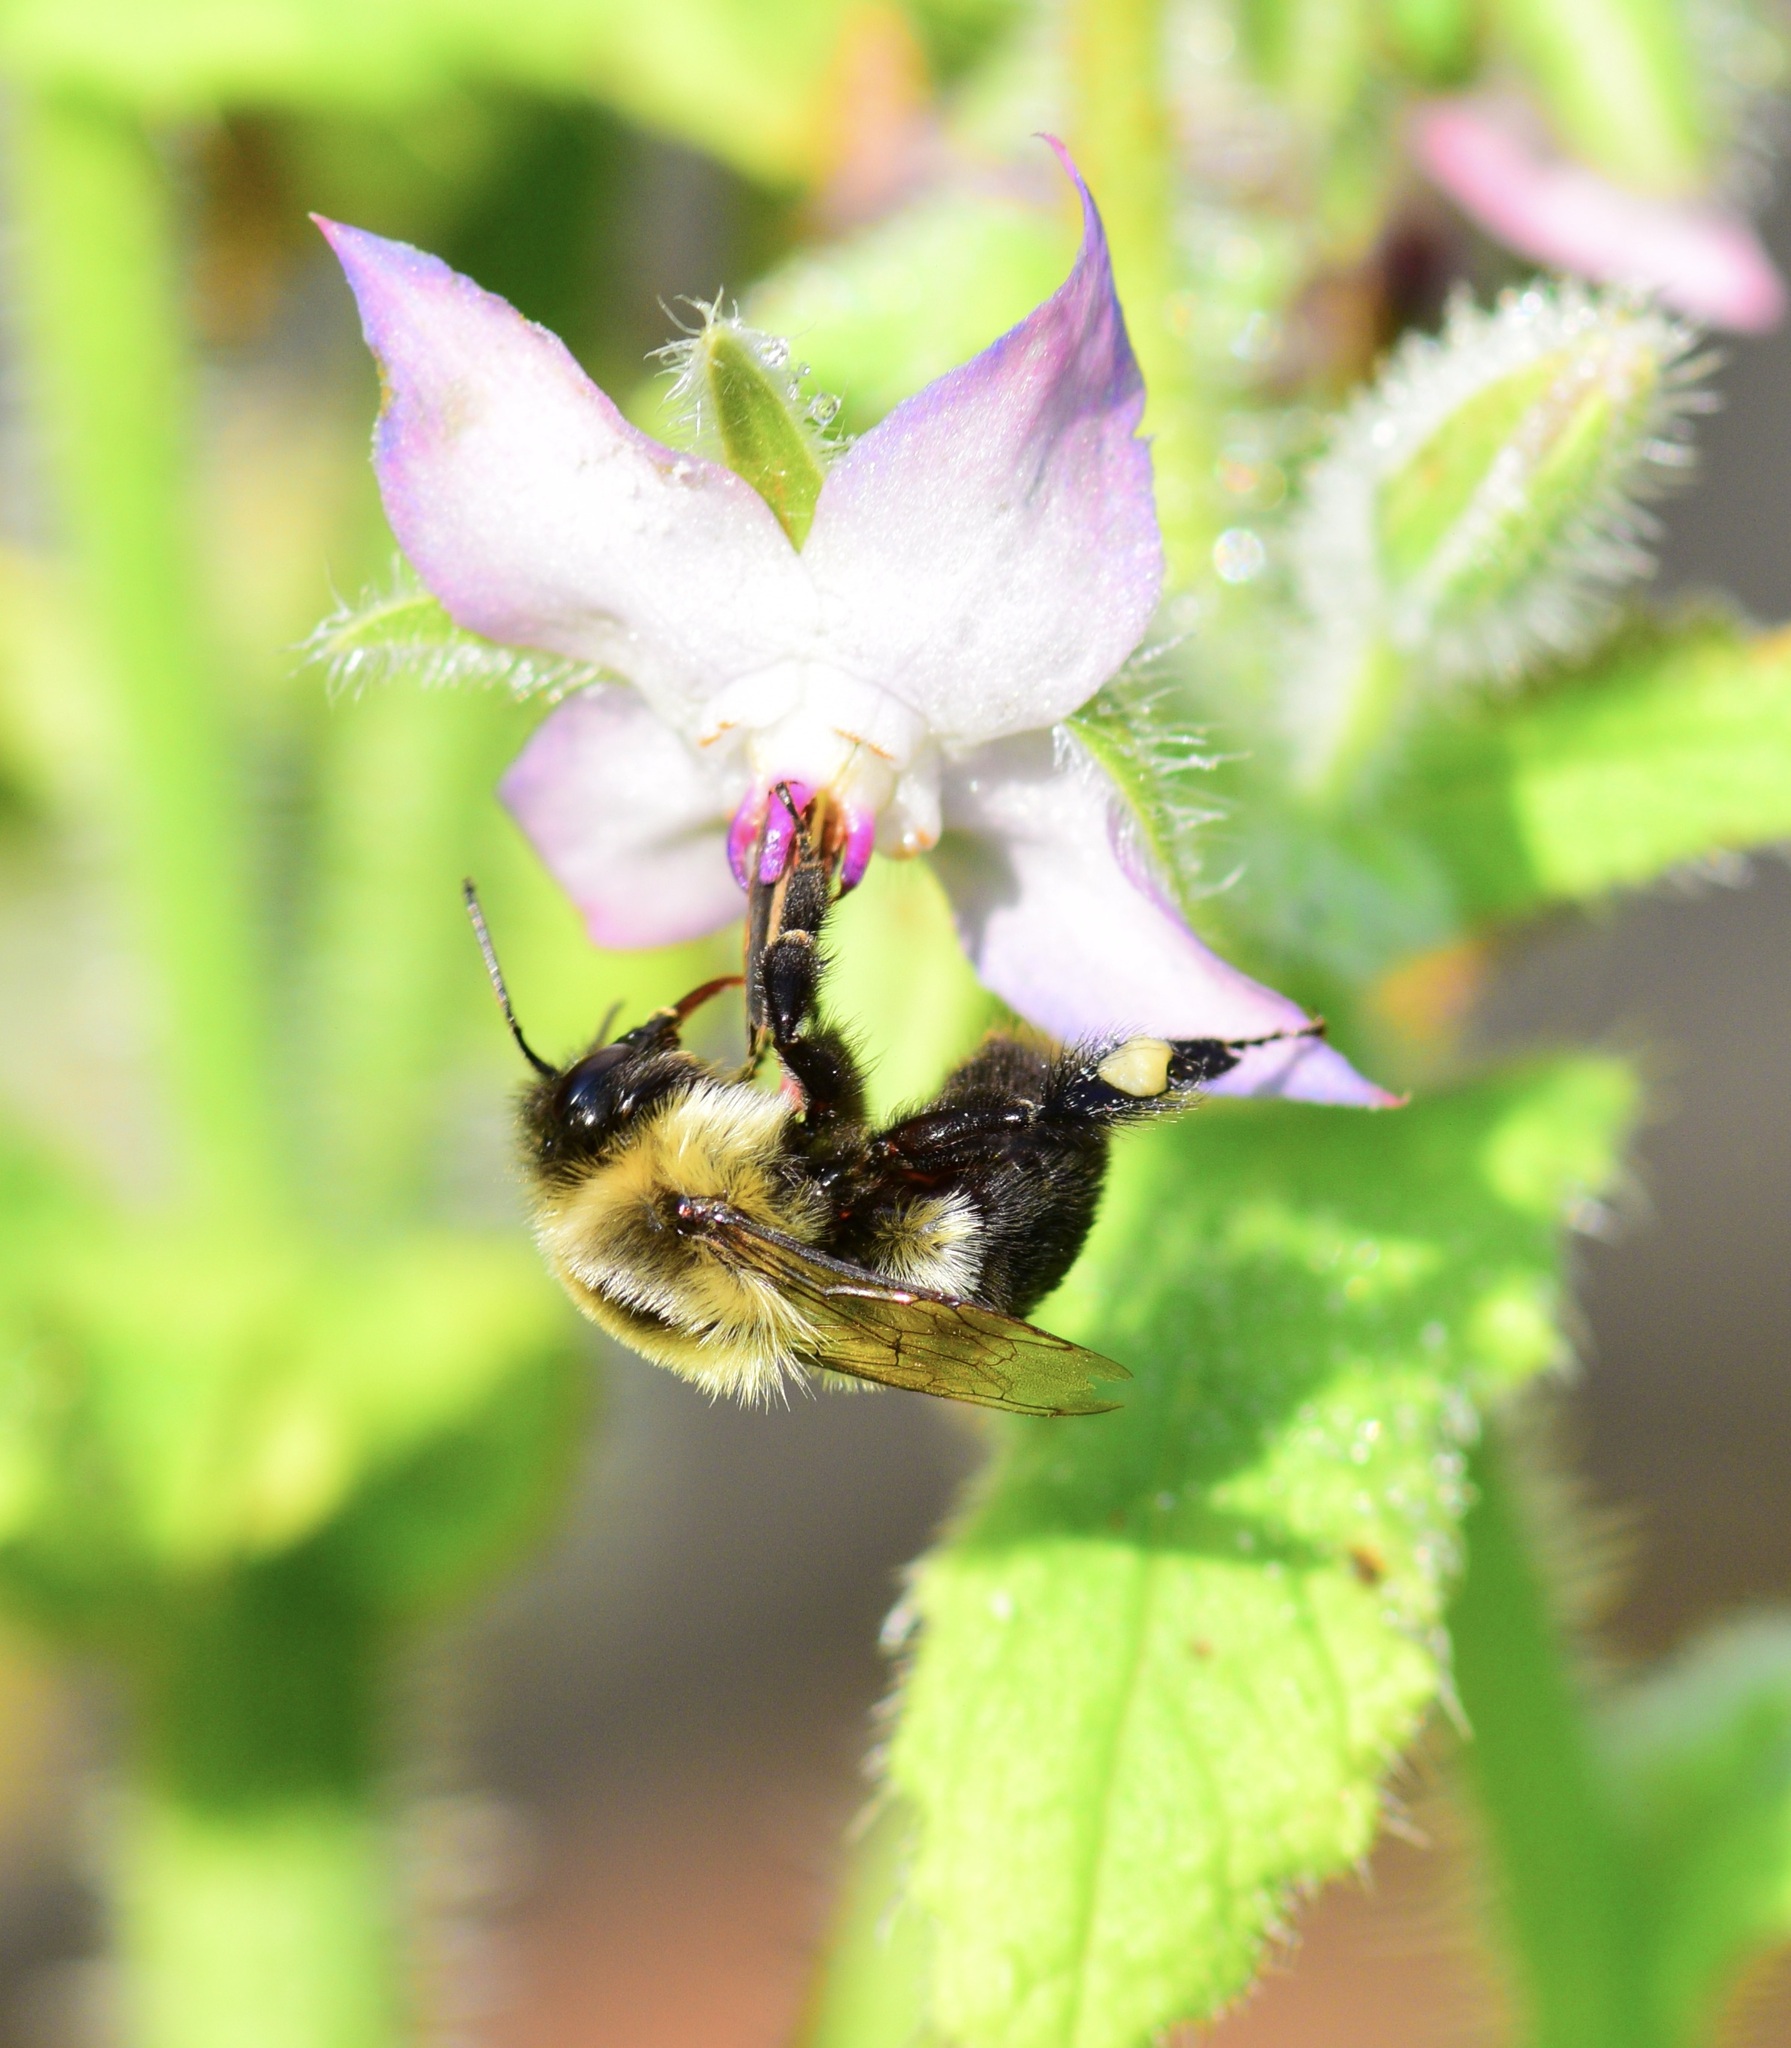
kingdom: Animalia
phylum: Arthropoda
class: Insecta
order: Hymenoptera
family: Apidae
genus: Bombus
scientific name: Bombus impatiens
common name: Common eastern bumble bee
